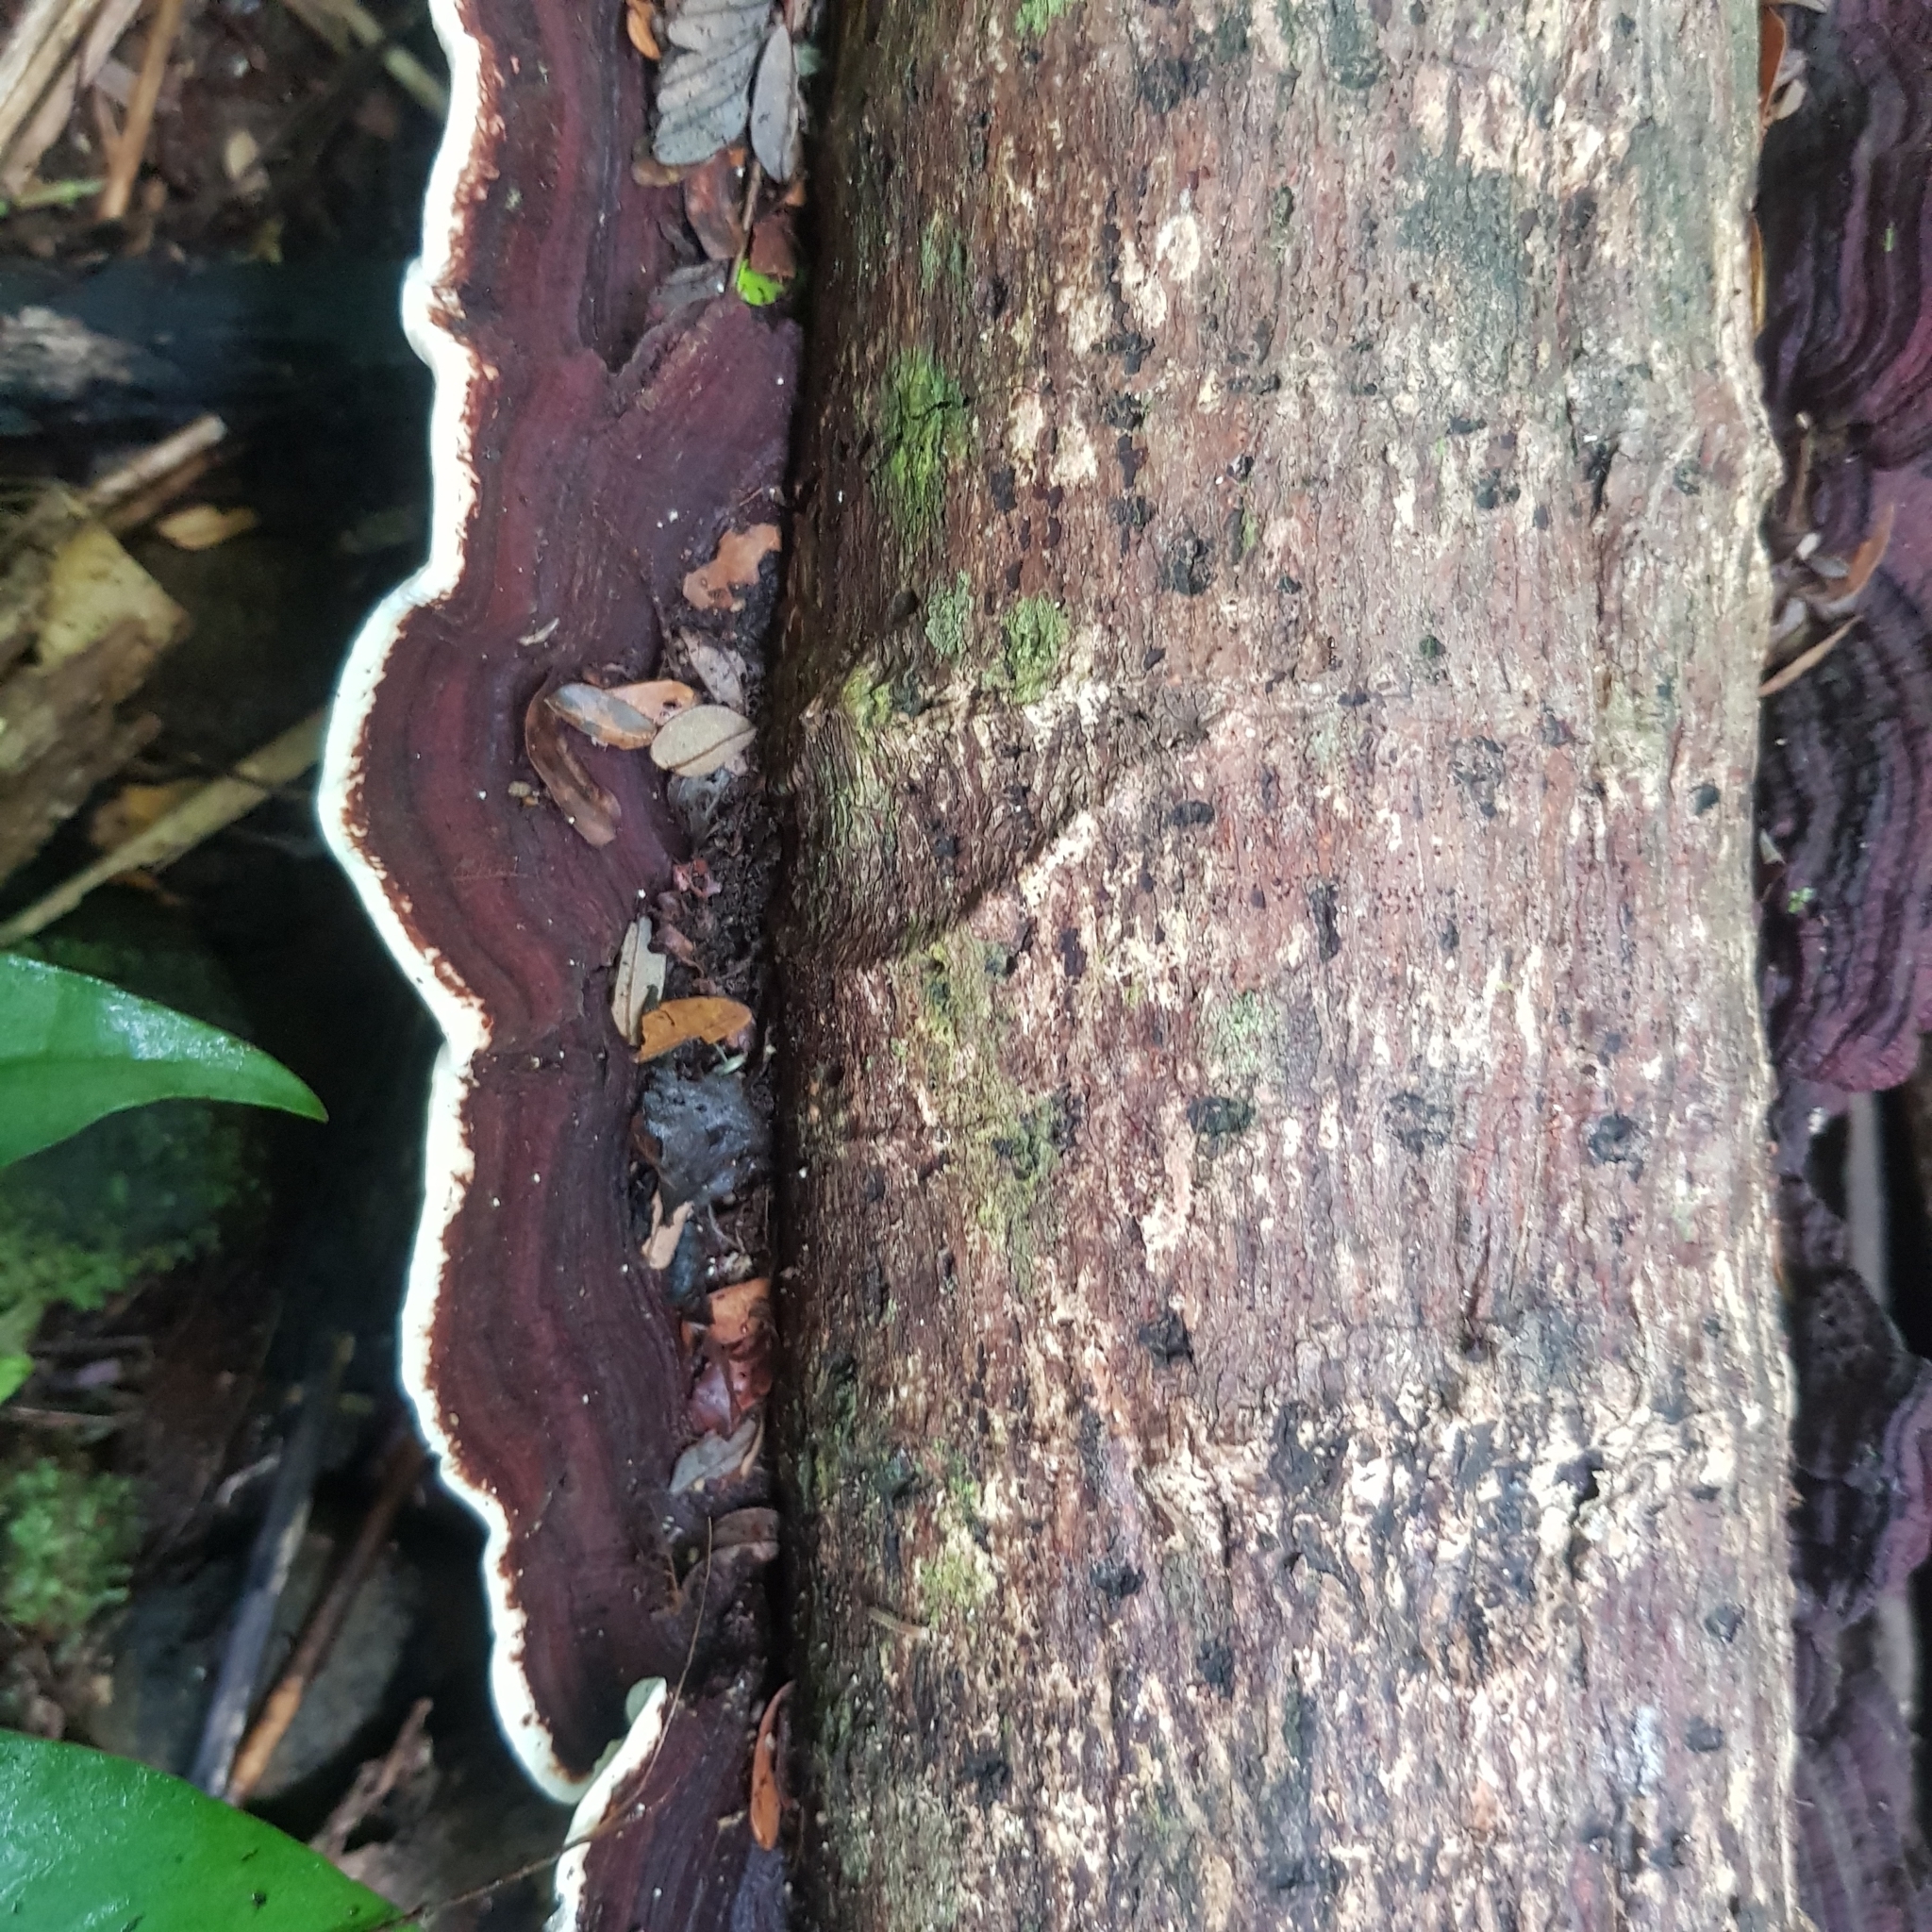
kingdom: Fungi
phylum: Basidiomycota
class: Agaricomycetes
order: Polyporales
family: Polyporaceae
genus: Earliella
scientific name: Earliella scabrosa
